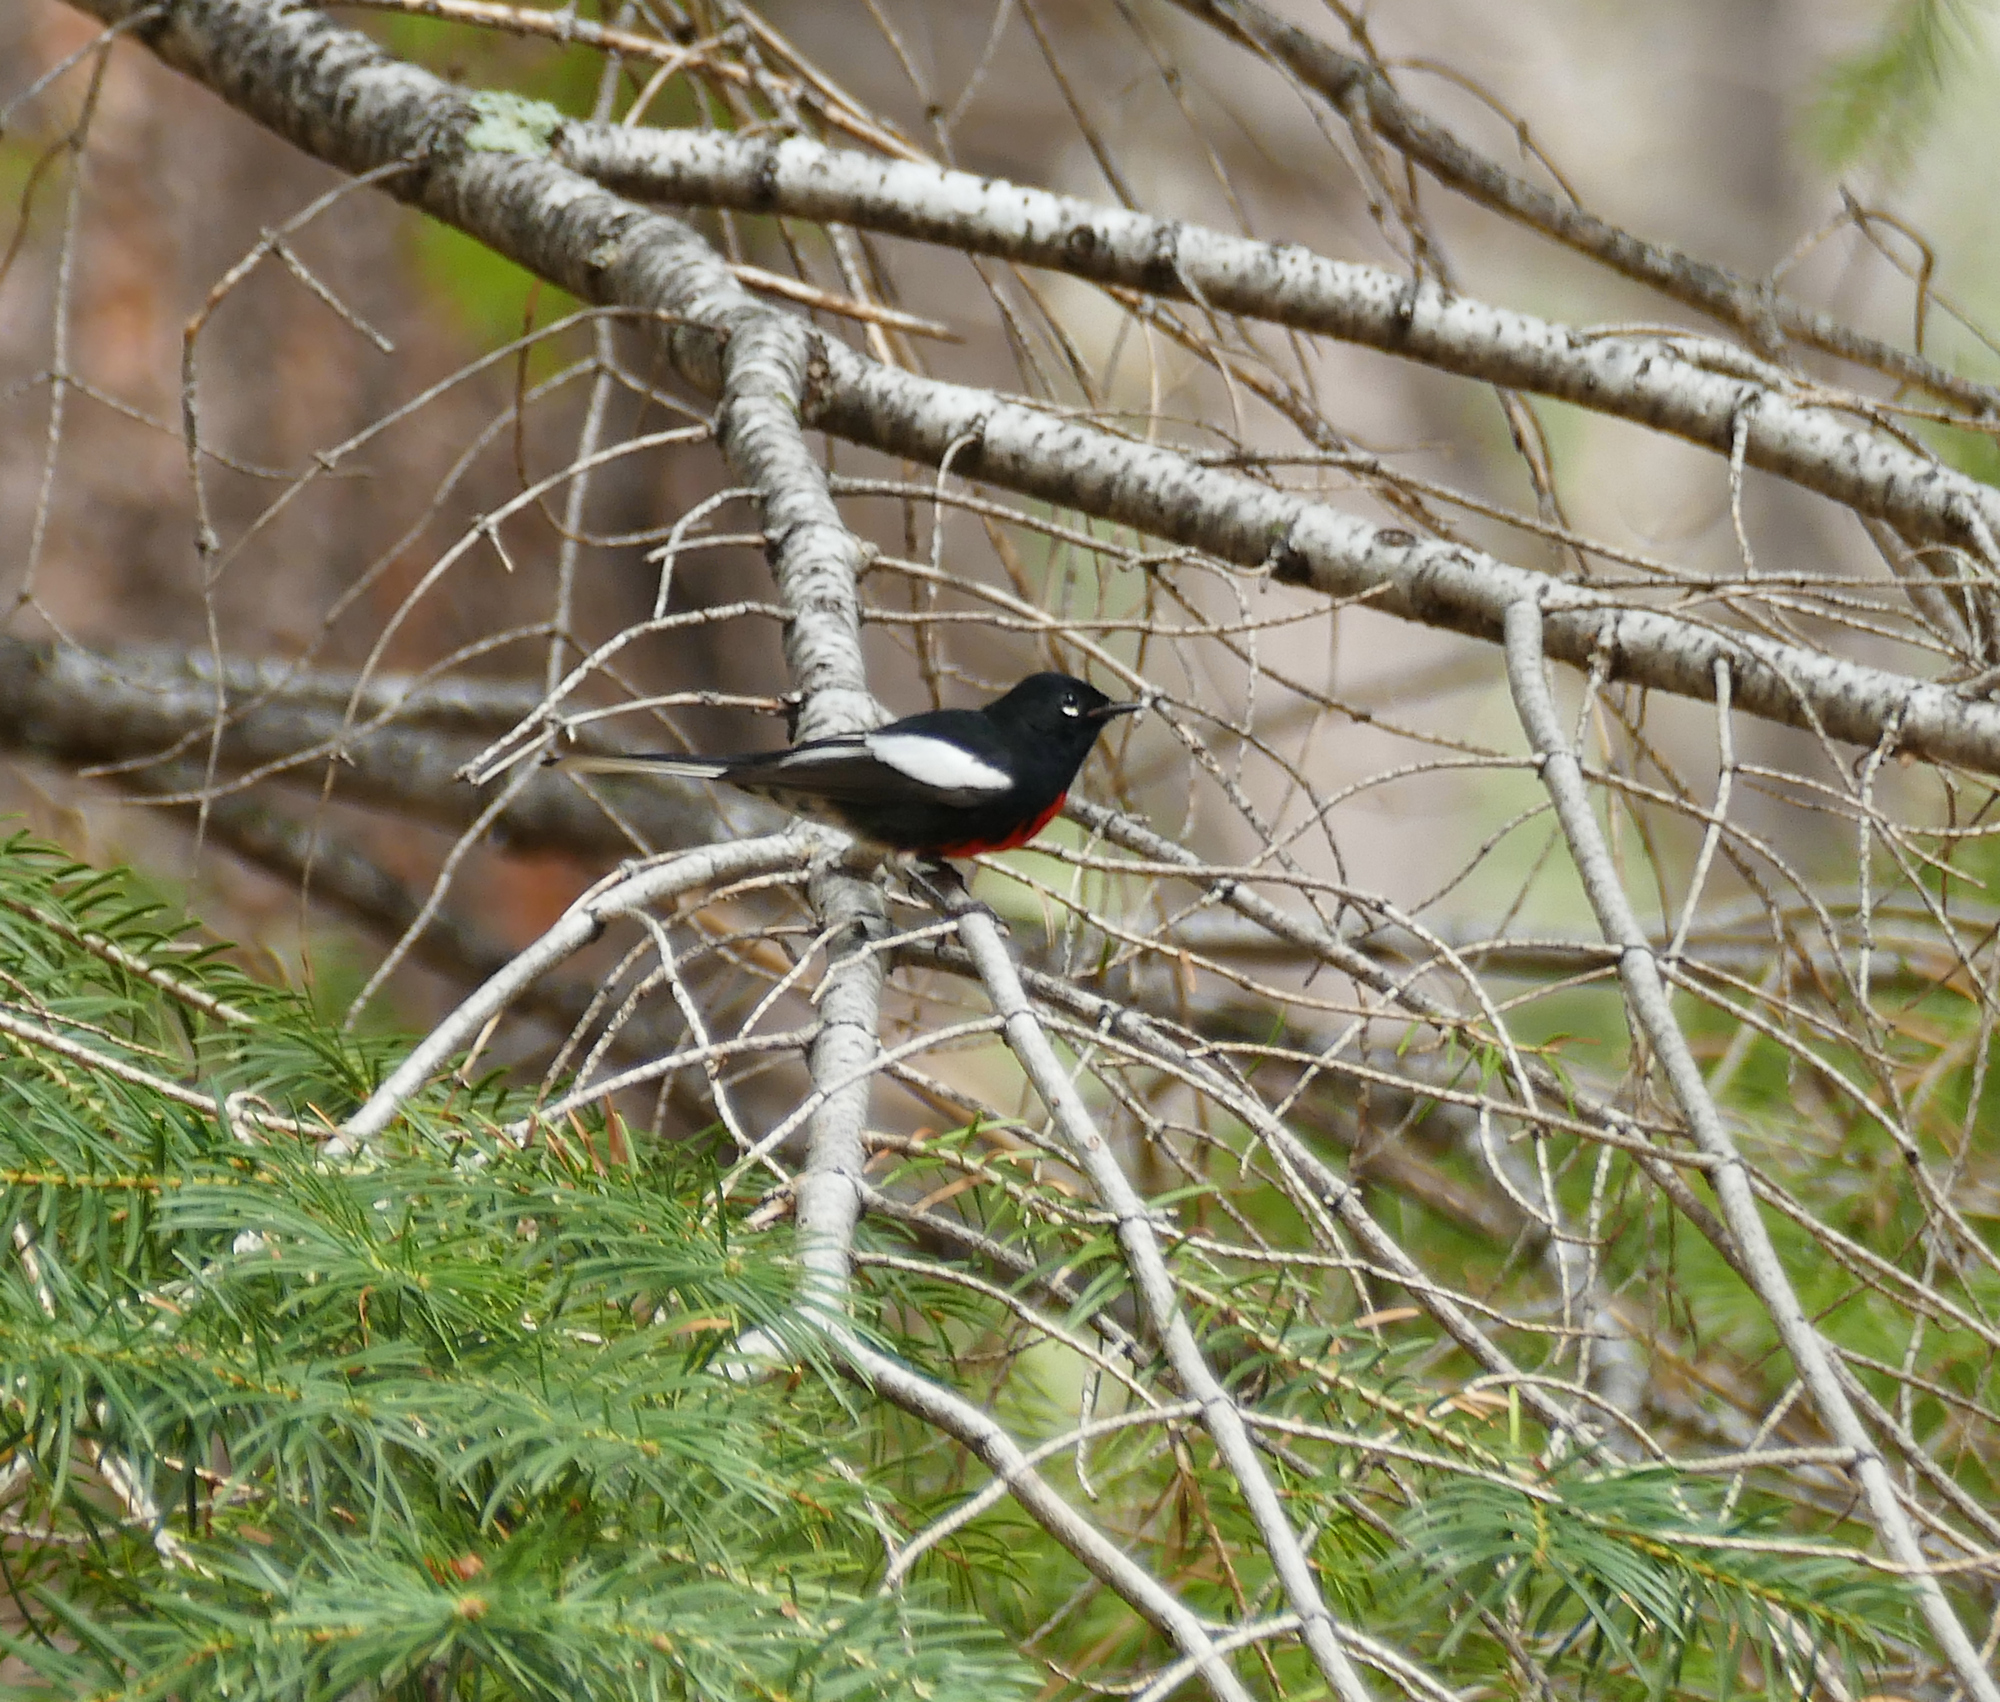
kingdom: Animalia
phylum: Chordata
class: Aves
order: Passeriformes
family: Parulidae
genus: Myioborus
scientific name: Myioborus pictus
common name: Painted whitestart
